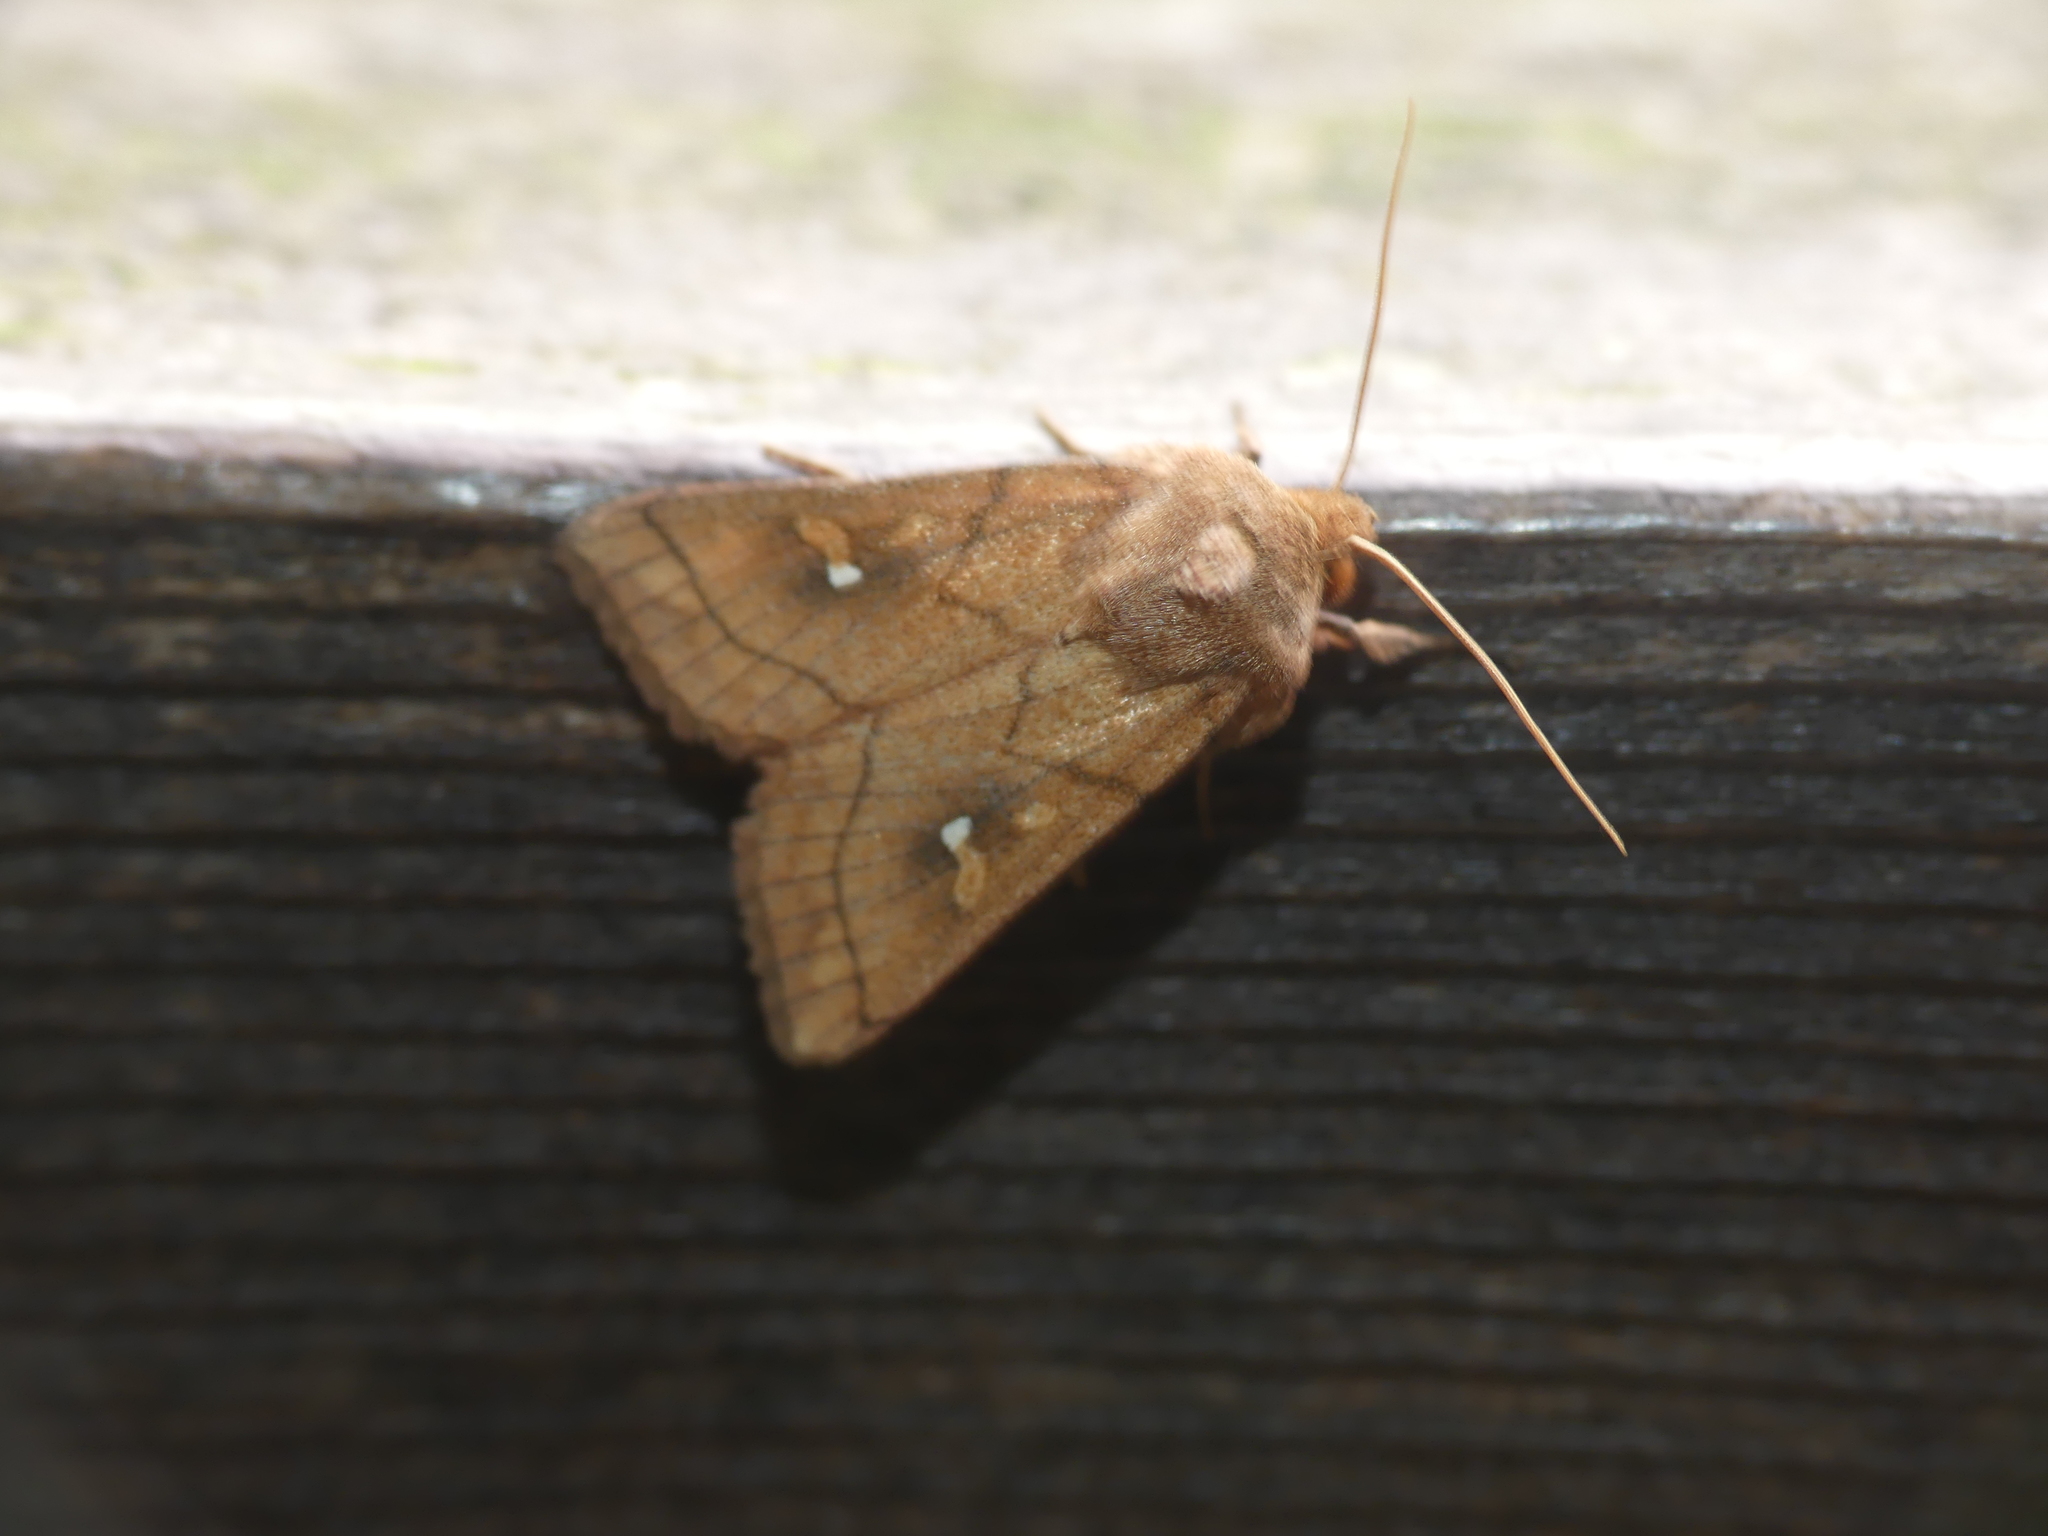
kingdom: Animalia
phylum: Arthropoda
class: Insecta
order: Lepidoptera
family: Noctuidae
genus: Mythimna
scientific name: Mythimna conigera
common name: Brown-line bright-eye
